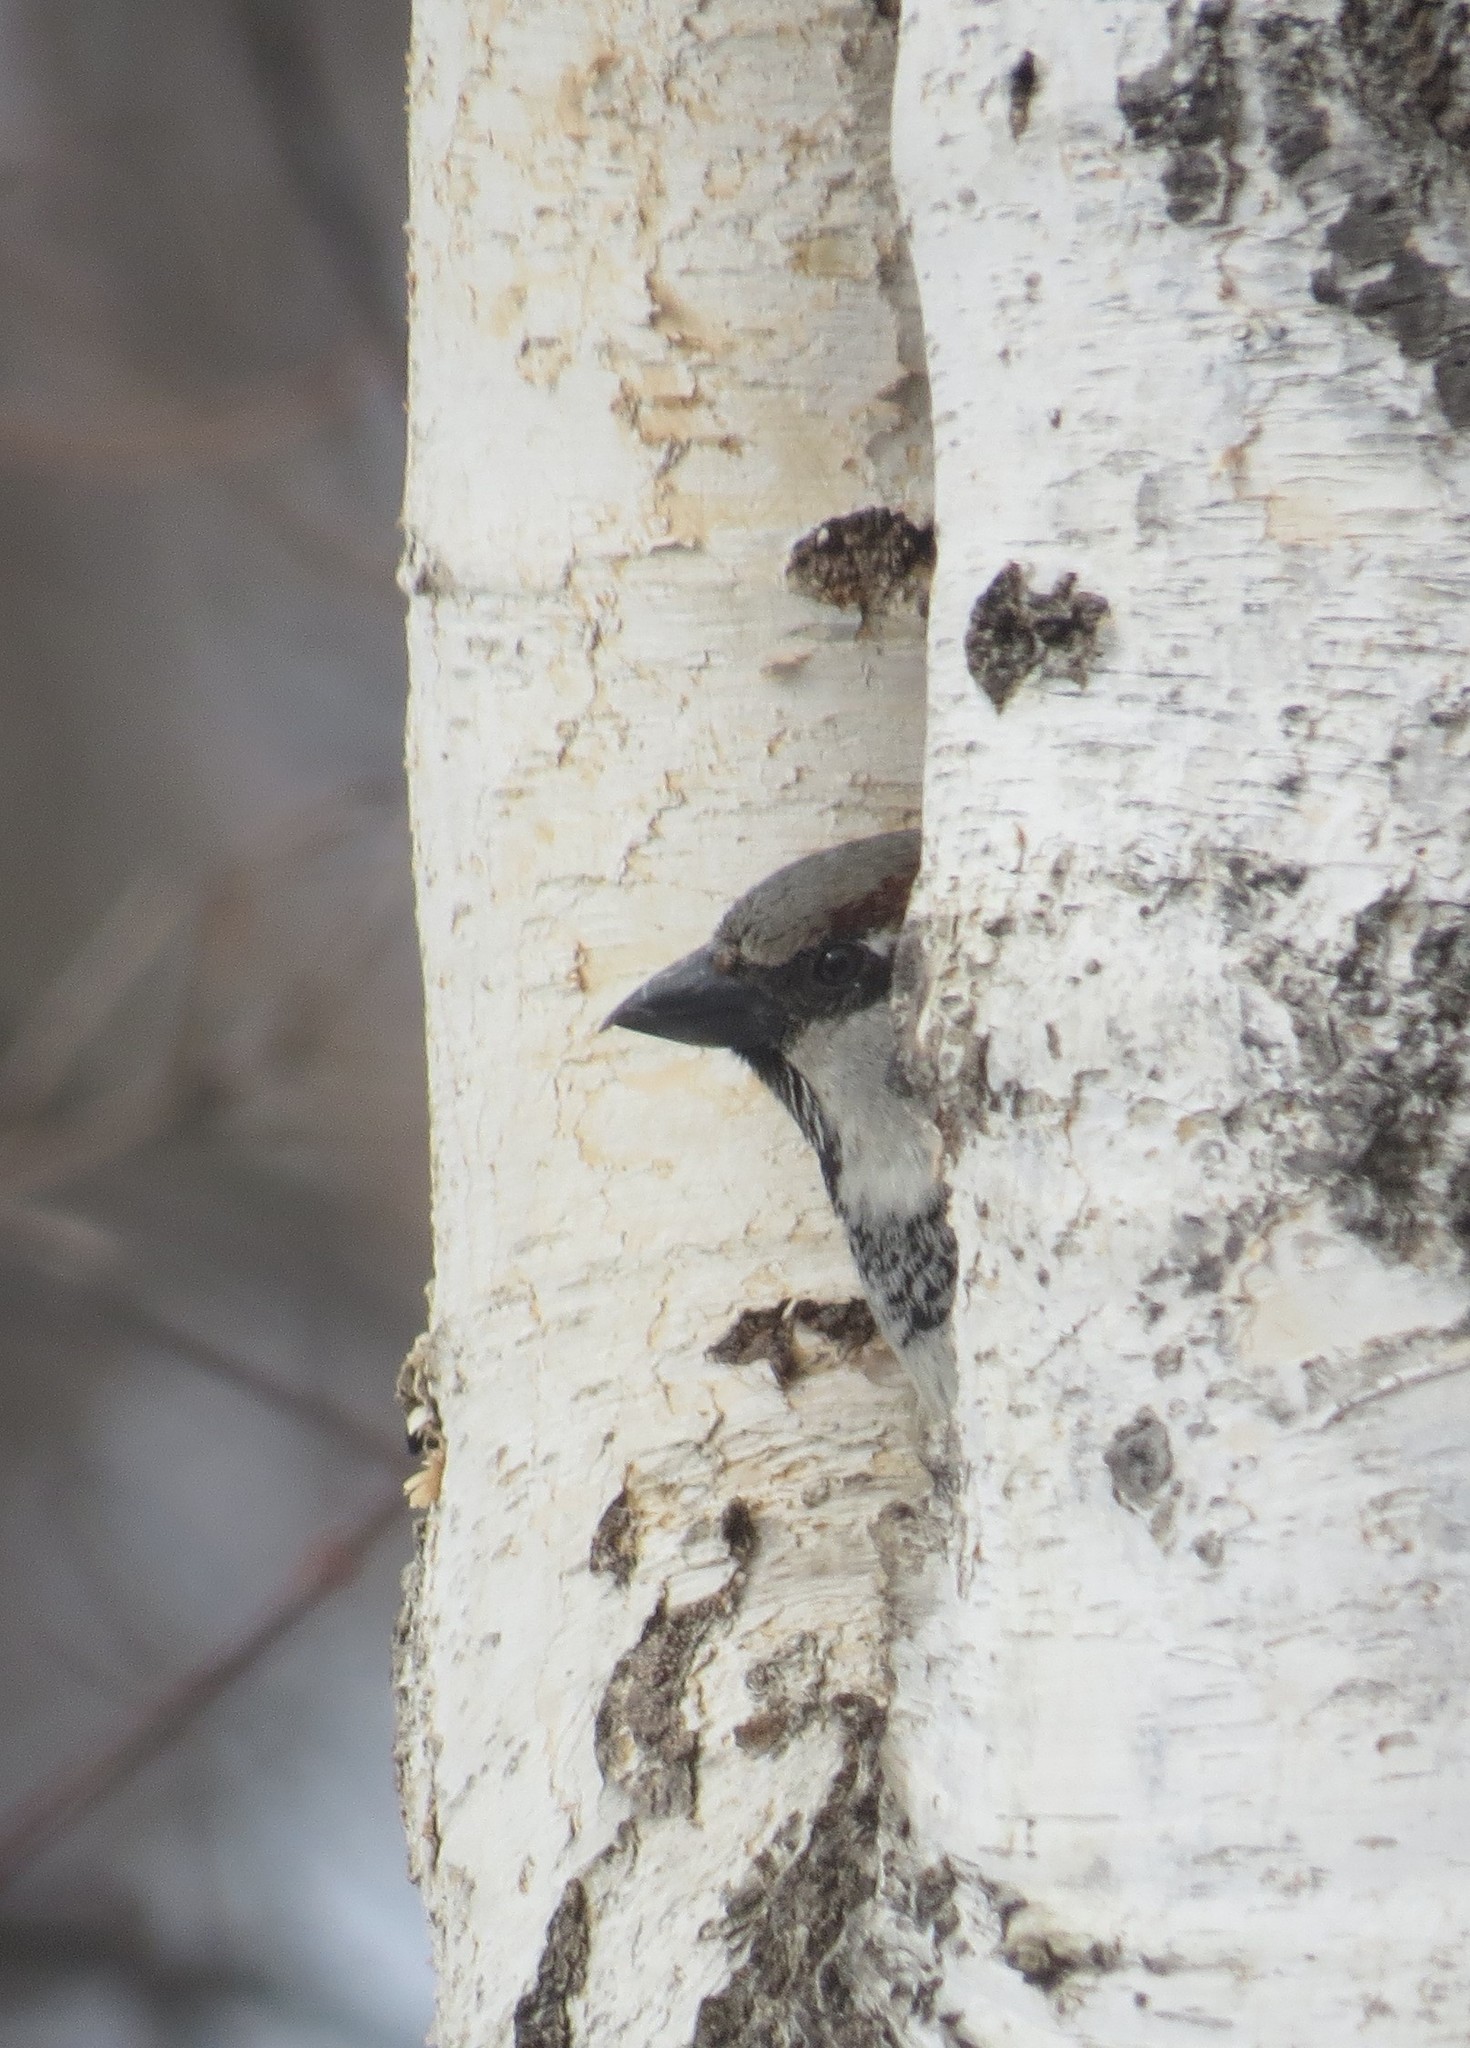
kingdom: Animalia
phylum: Chordata
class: Aves
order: Passeriformes
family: Passeridae
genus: Passer
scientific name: Passer domesticus
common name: House sparrow
